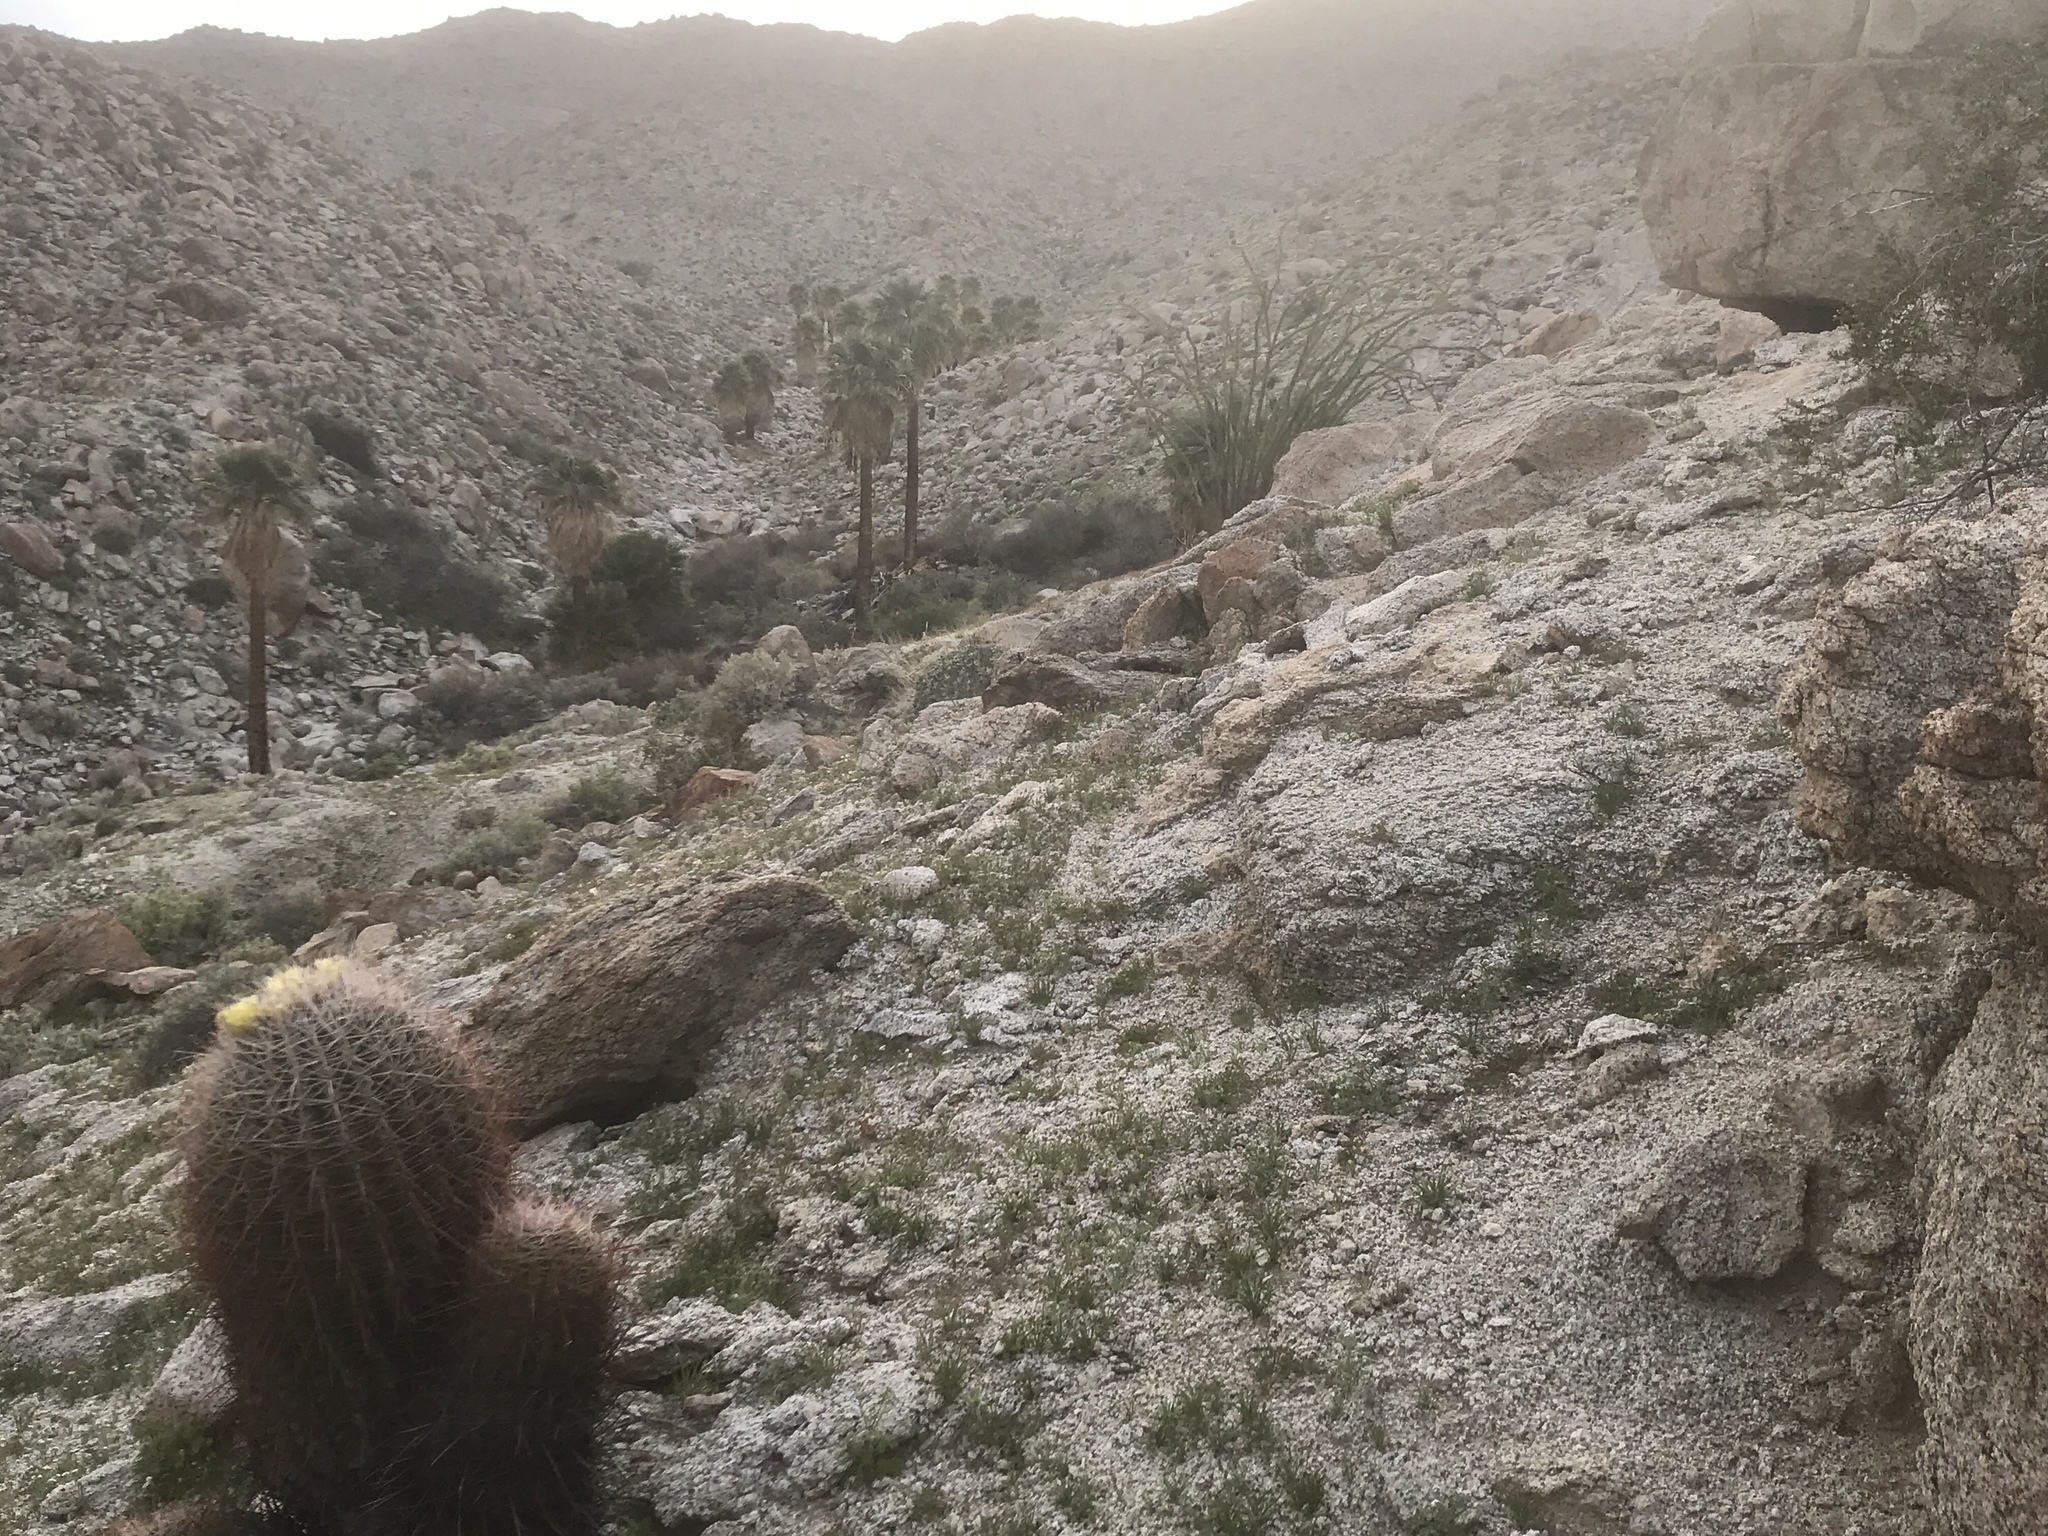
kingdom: Plantae
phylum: Tracheophyta
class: Liliopsida
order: Arecales
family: Arecaceae
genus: Washingtonia
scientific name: Washingtonia filifera
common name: California fan palm
